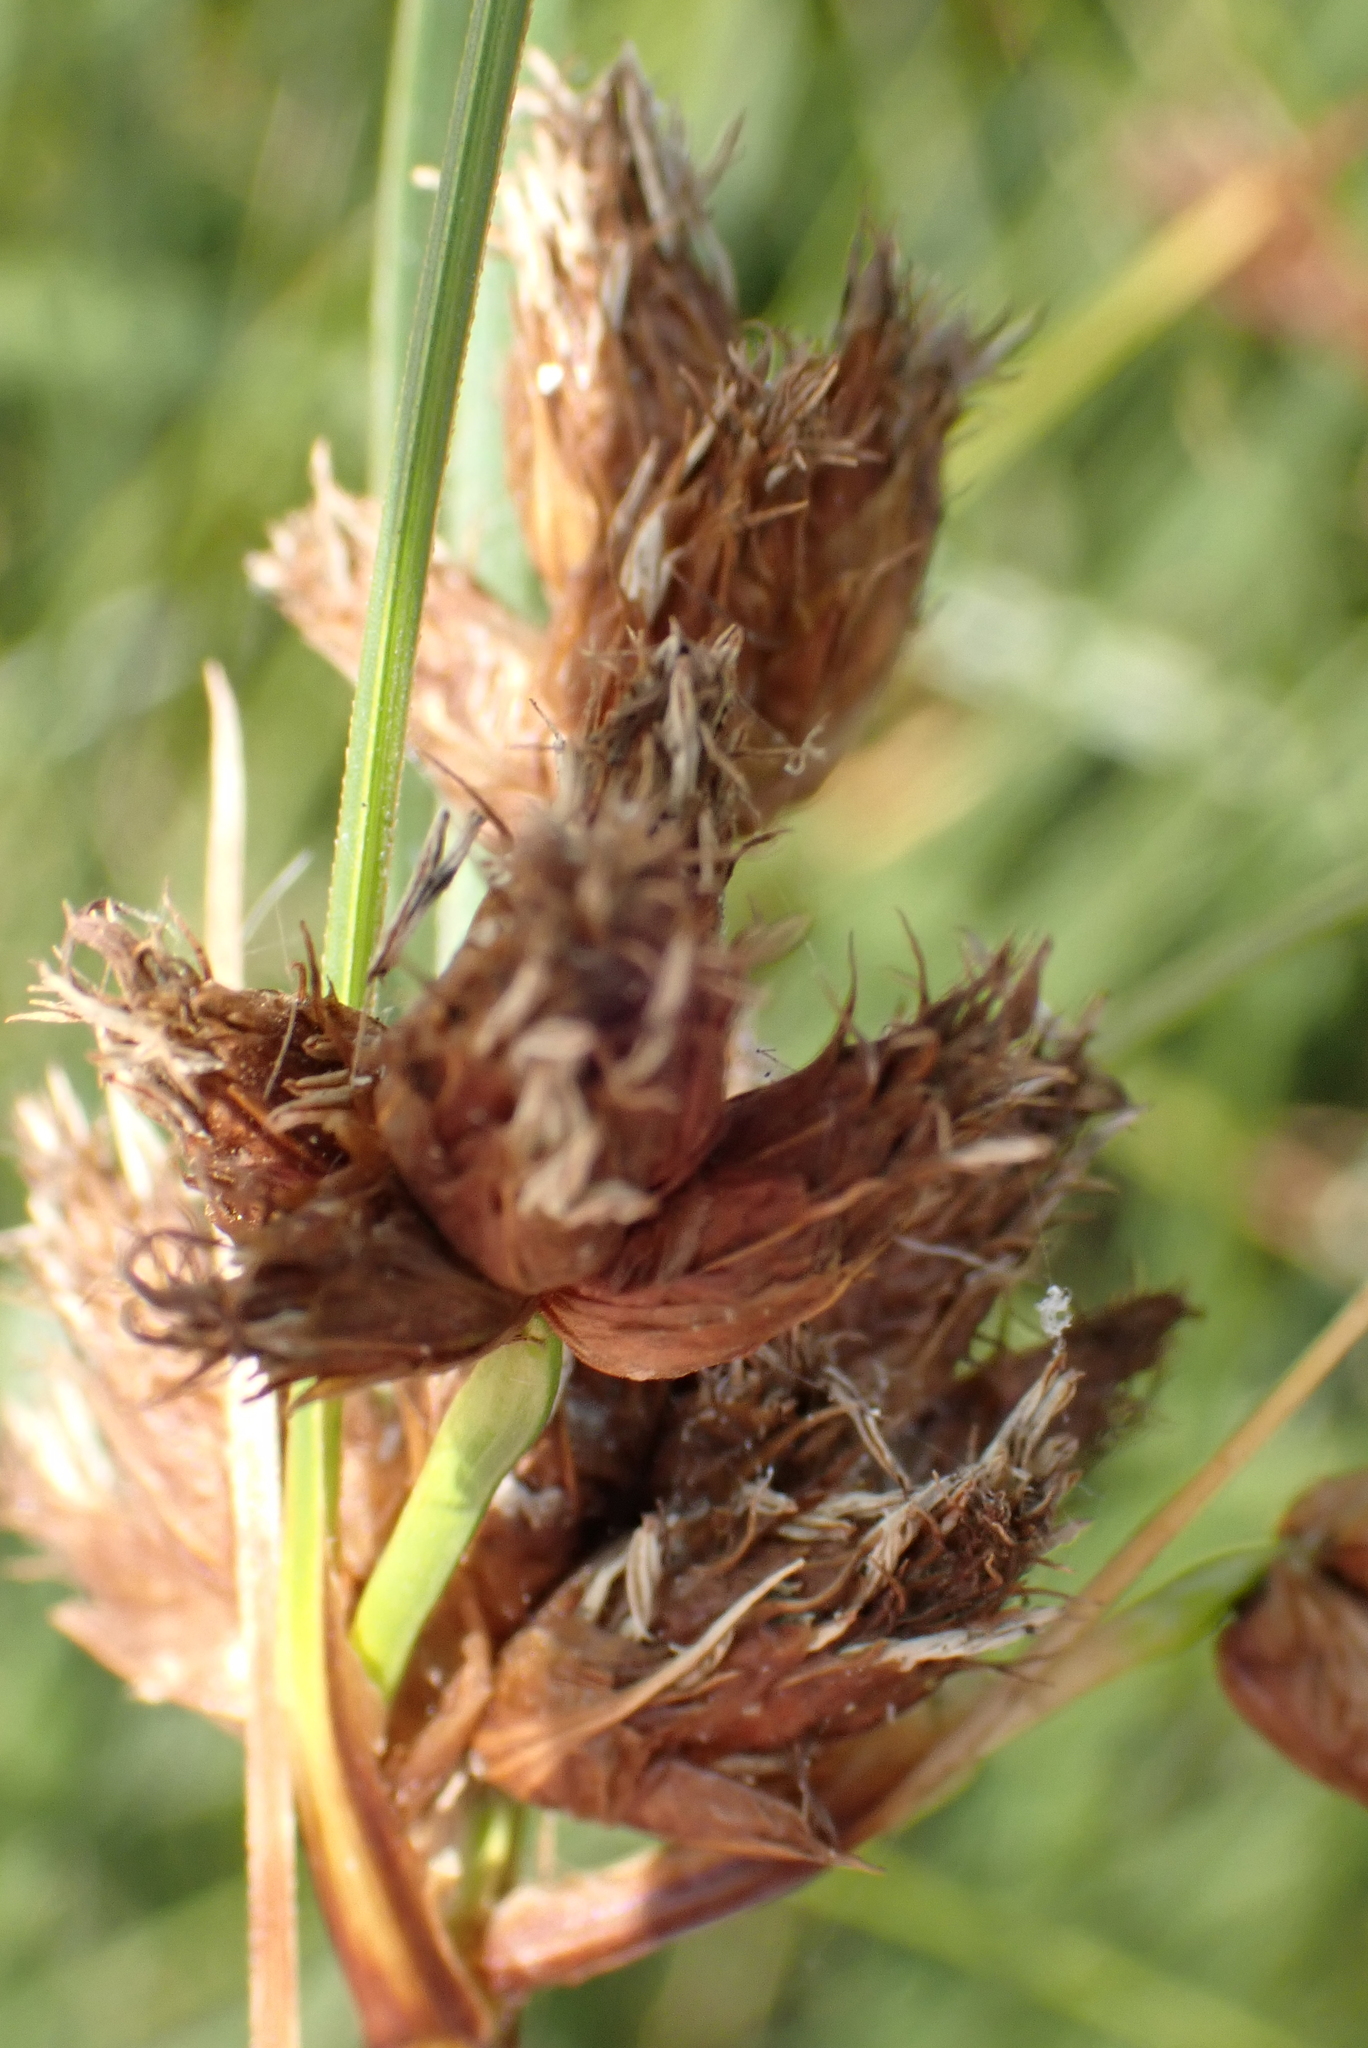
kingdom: Plantae
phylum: Tracheophyta
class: Liliopsida
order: Poales
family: Cyperaceae
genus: Bolboschoenus
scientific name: Bolboschoenus maritimus
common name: Sea club-rush
